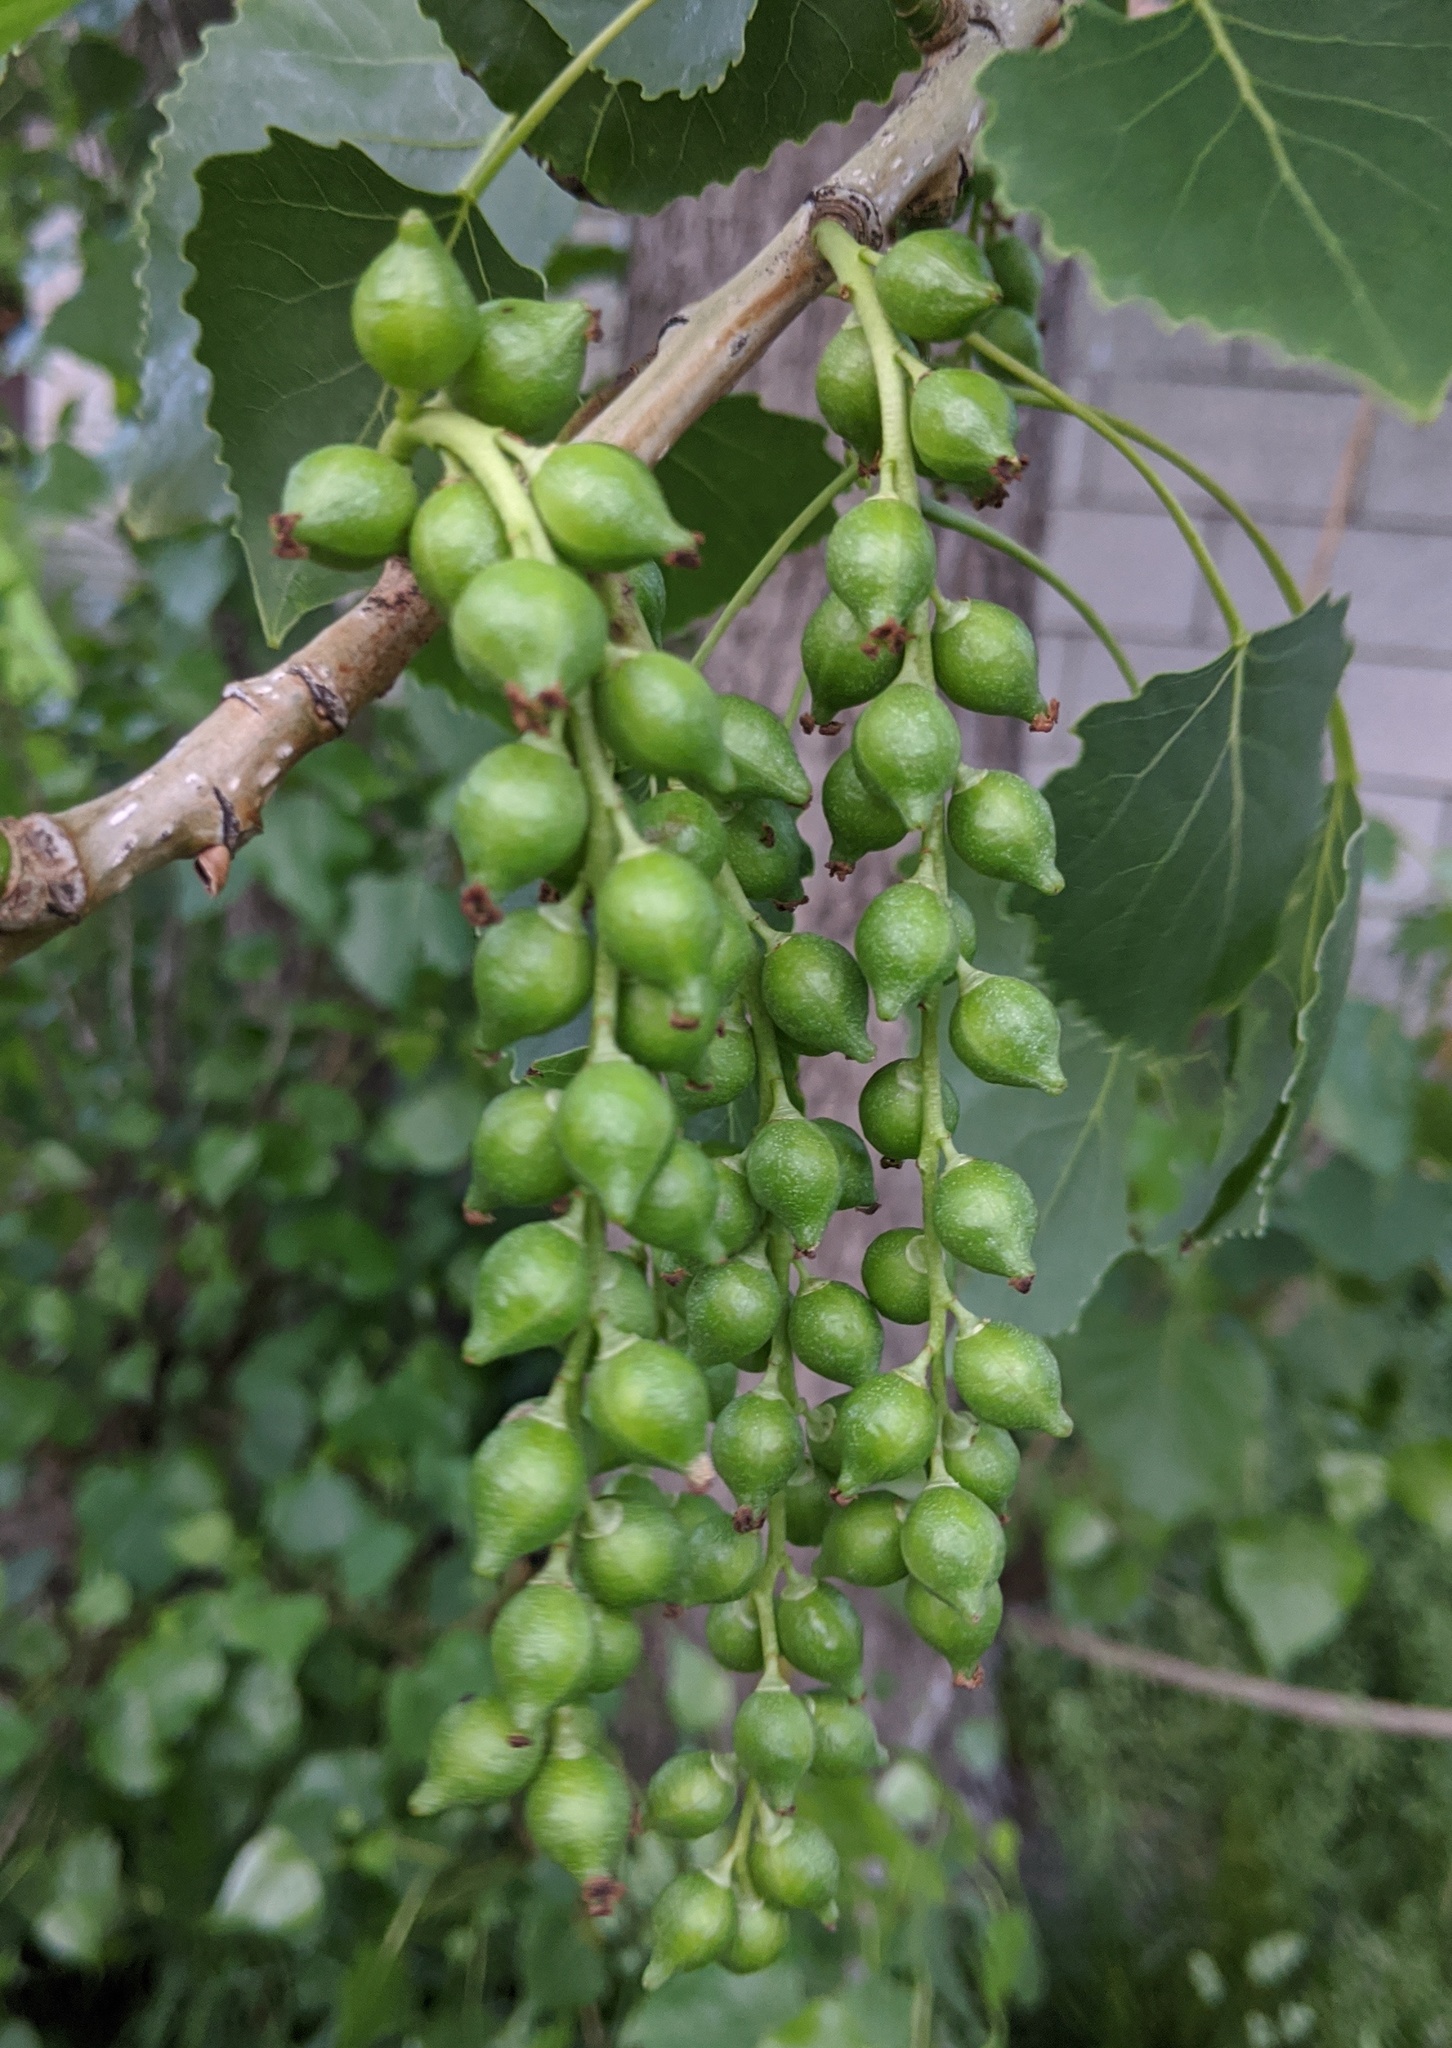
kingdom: Plantae
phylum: Tracheophyta
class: Magnoliopsida
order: Malpighiales
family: Salicaceae
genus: Populus
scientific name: Populus deltoides
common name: Eastern cottonwood
